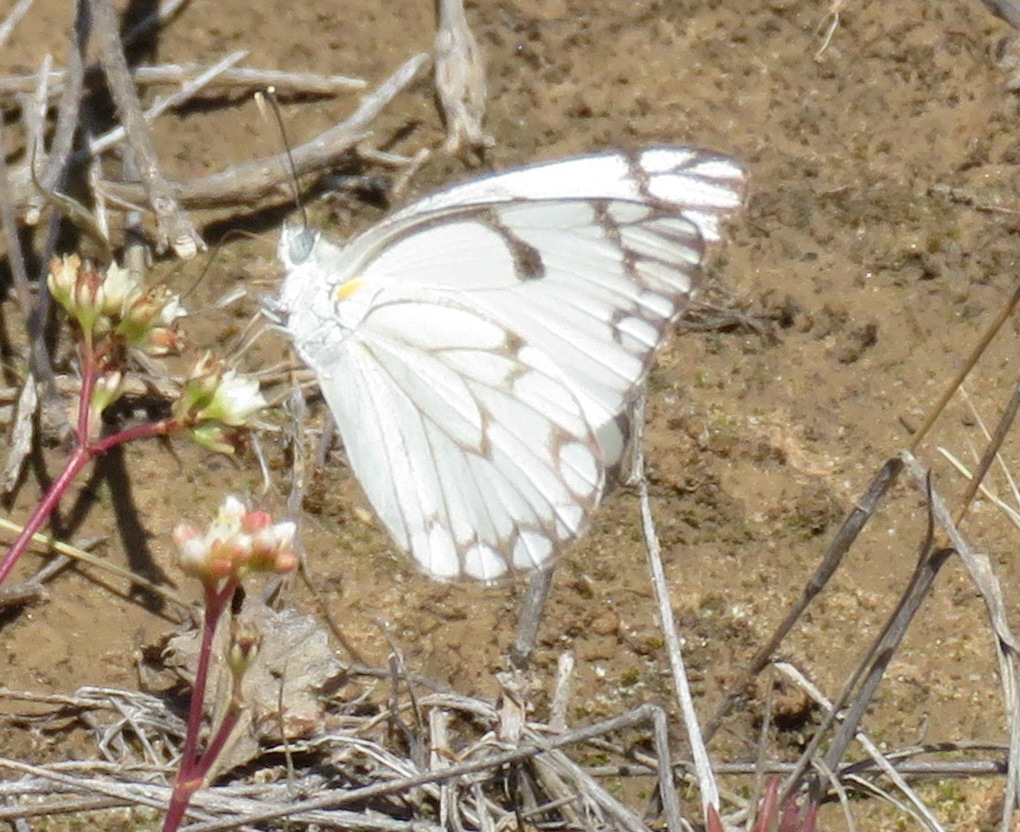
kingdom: Animalia
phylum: Arthropoda
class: Insecta
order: Lepidoptera
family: Pieridae
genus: Belenois
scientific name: Belenois aurota
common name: Brown-veined white
